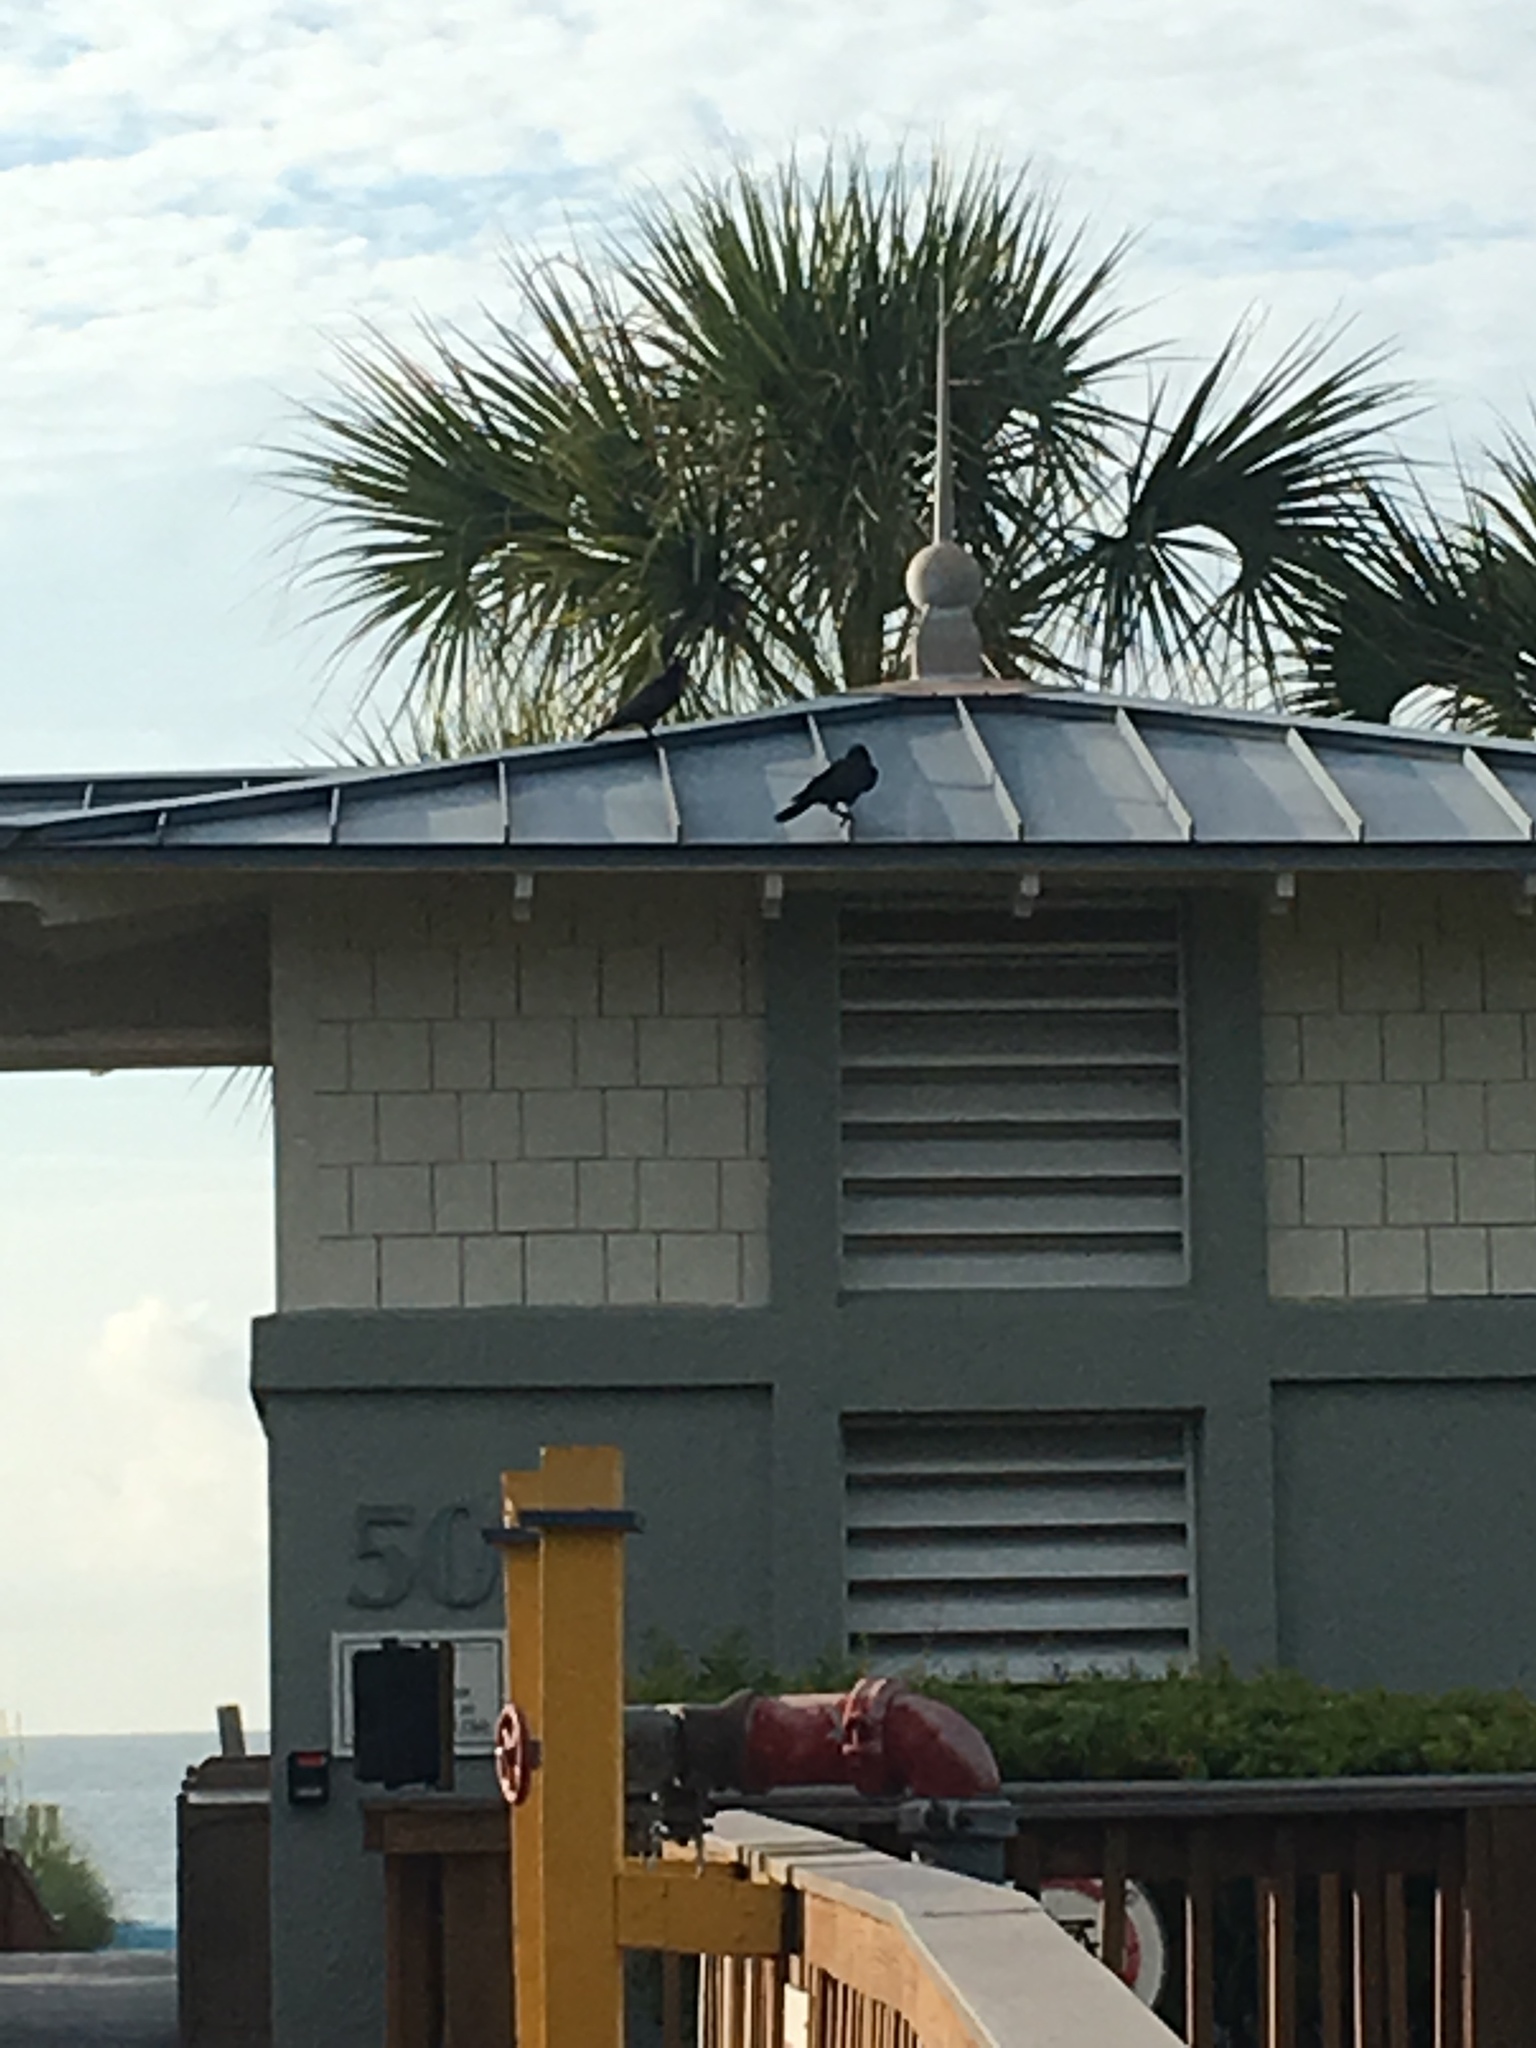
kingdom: Animalia
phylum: Chordata
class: Aves
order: Passeriformes
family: Corvidae
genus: Corvus
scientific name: Corvus ossifragus
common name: Fish crow
